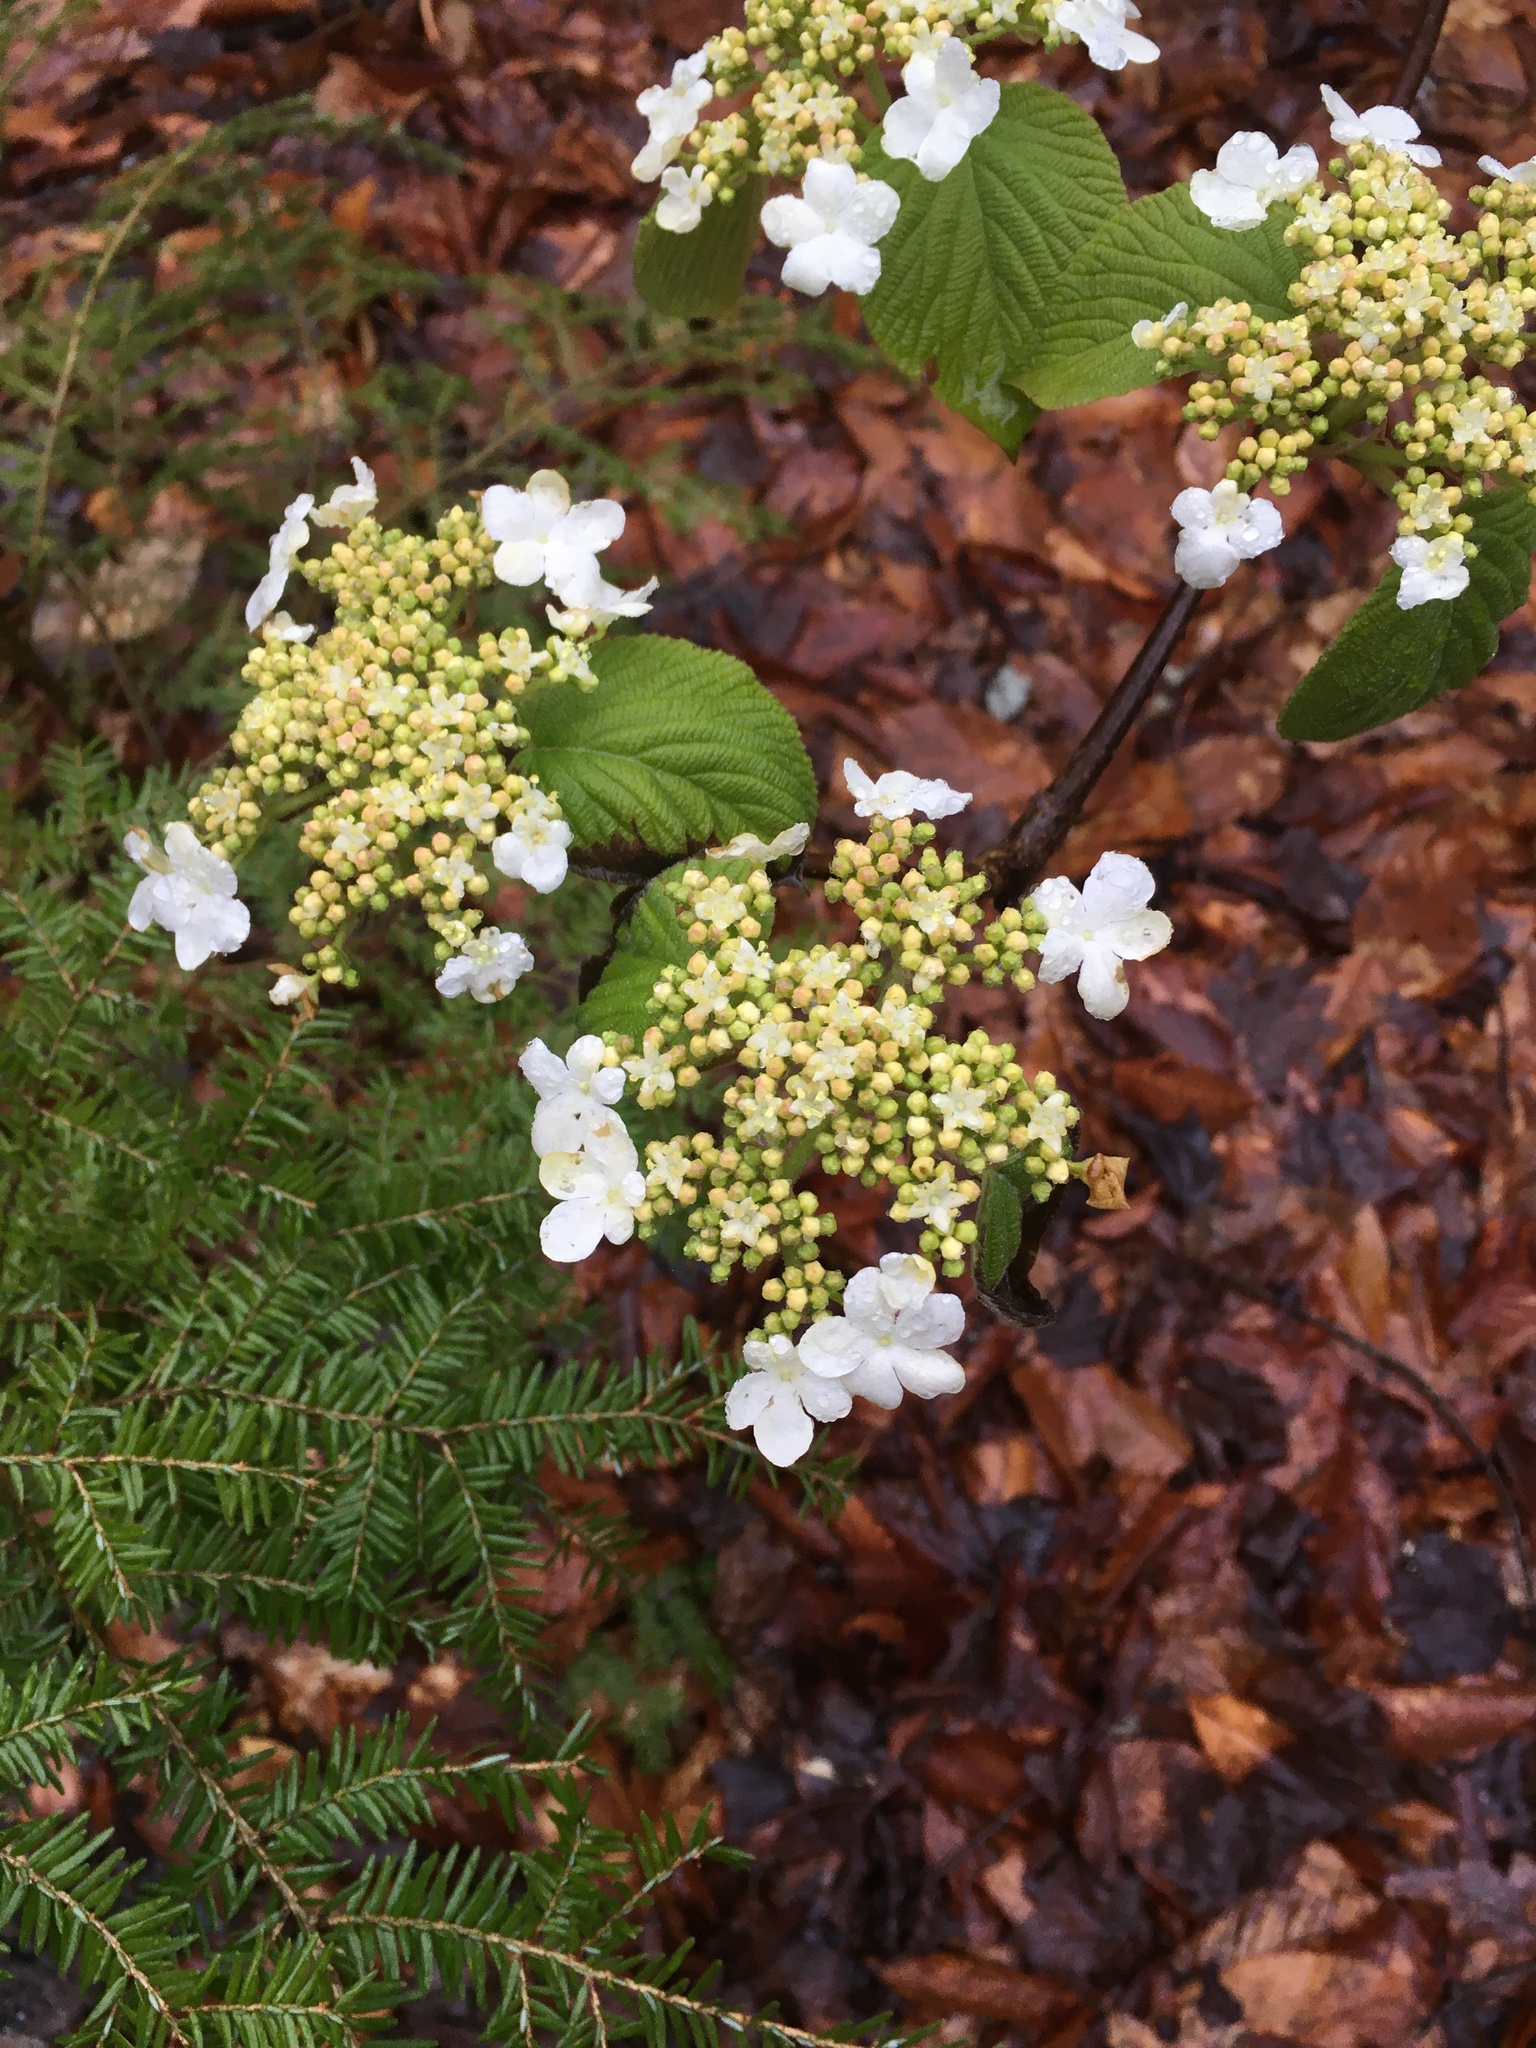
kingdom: Plantae
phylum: Tracheophyta
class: Magnoliopsida
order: Dipsacales
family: Viburnaceae
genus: Viburnum
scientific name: Viburnum lantanoides
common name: Hobblebush
